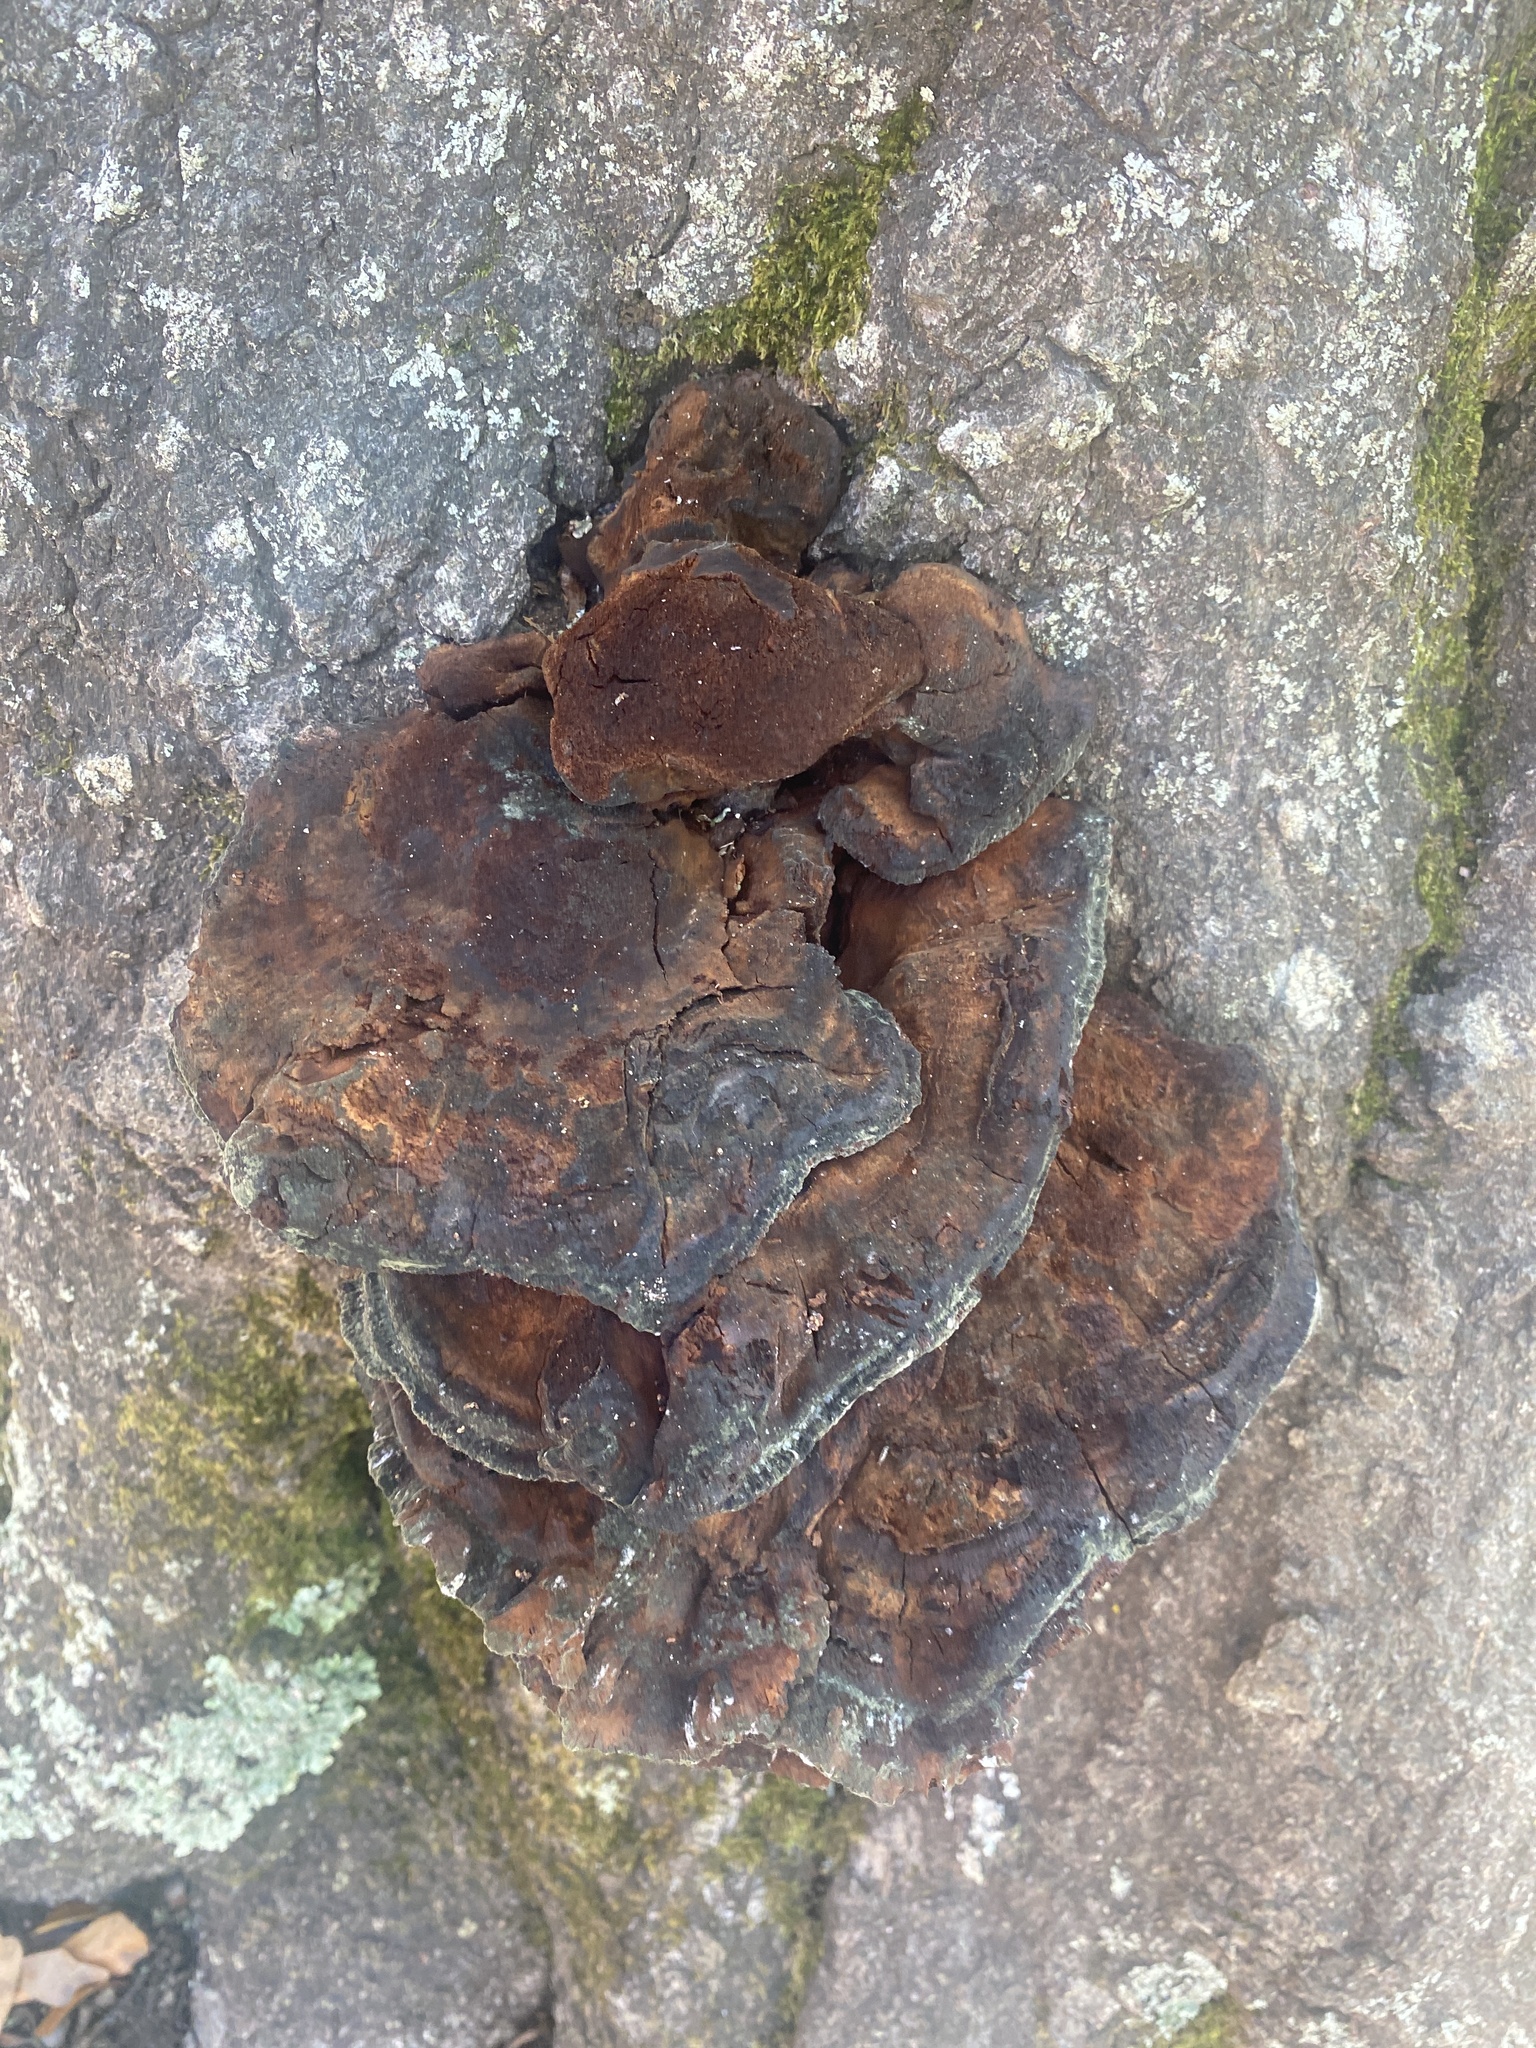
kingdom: Fungi
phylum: Basidiomycota
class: Agaricomycetes
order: Hymenochaetales
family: Hymenochaetaceae
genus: Inocutis
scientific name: Inocutis ludoviciana
